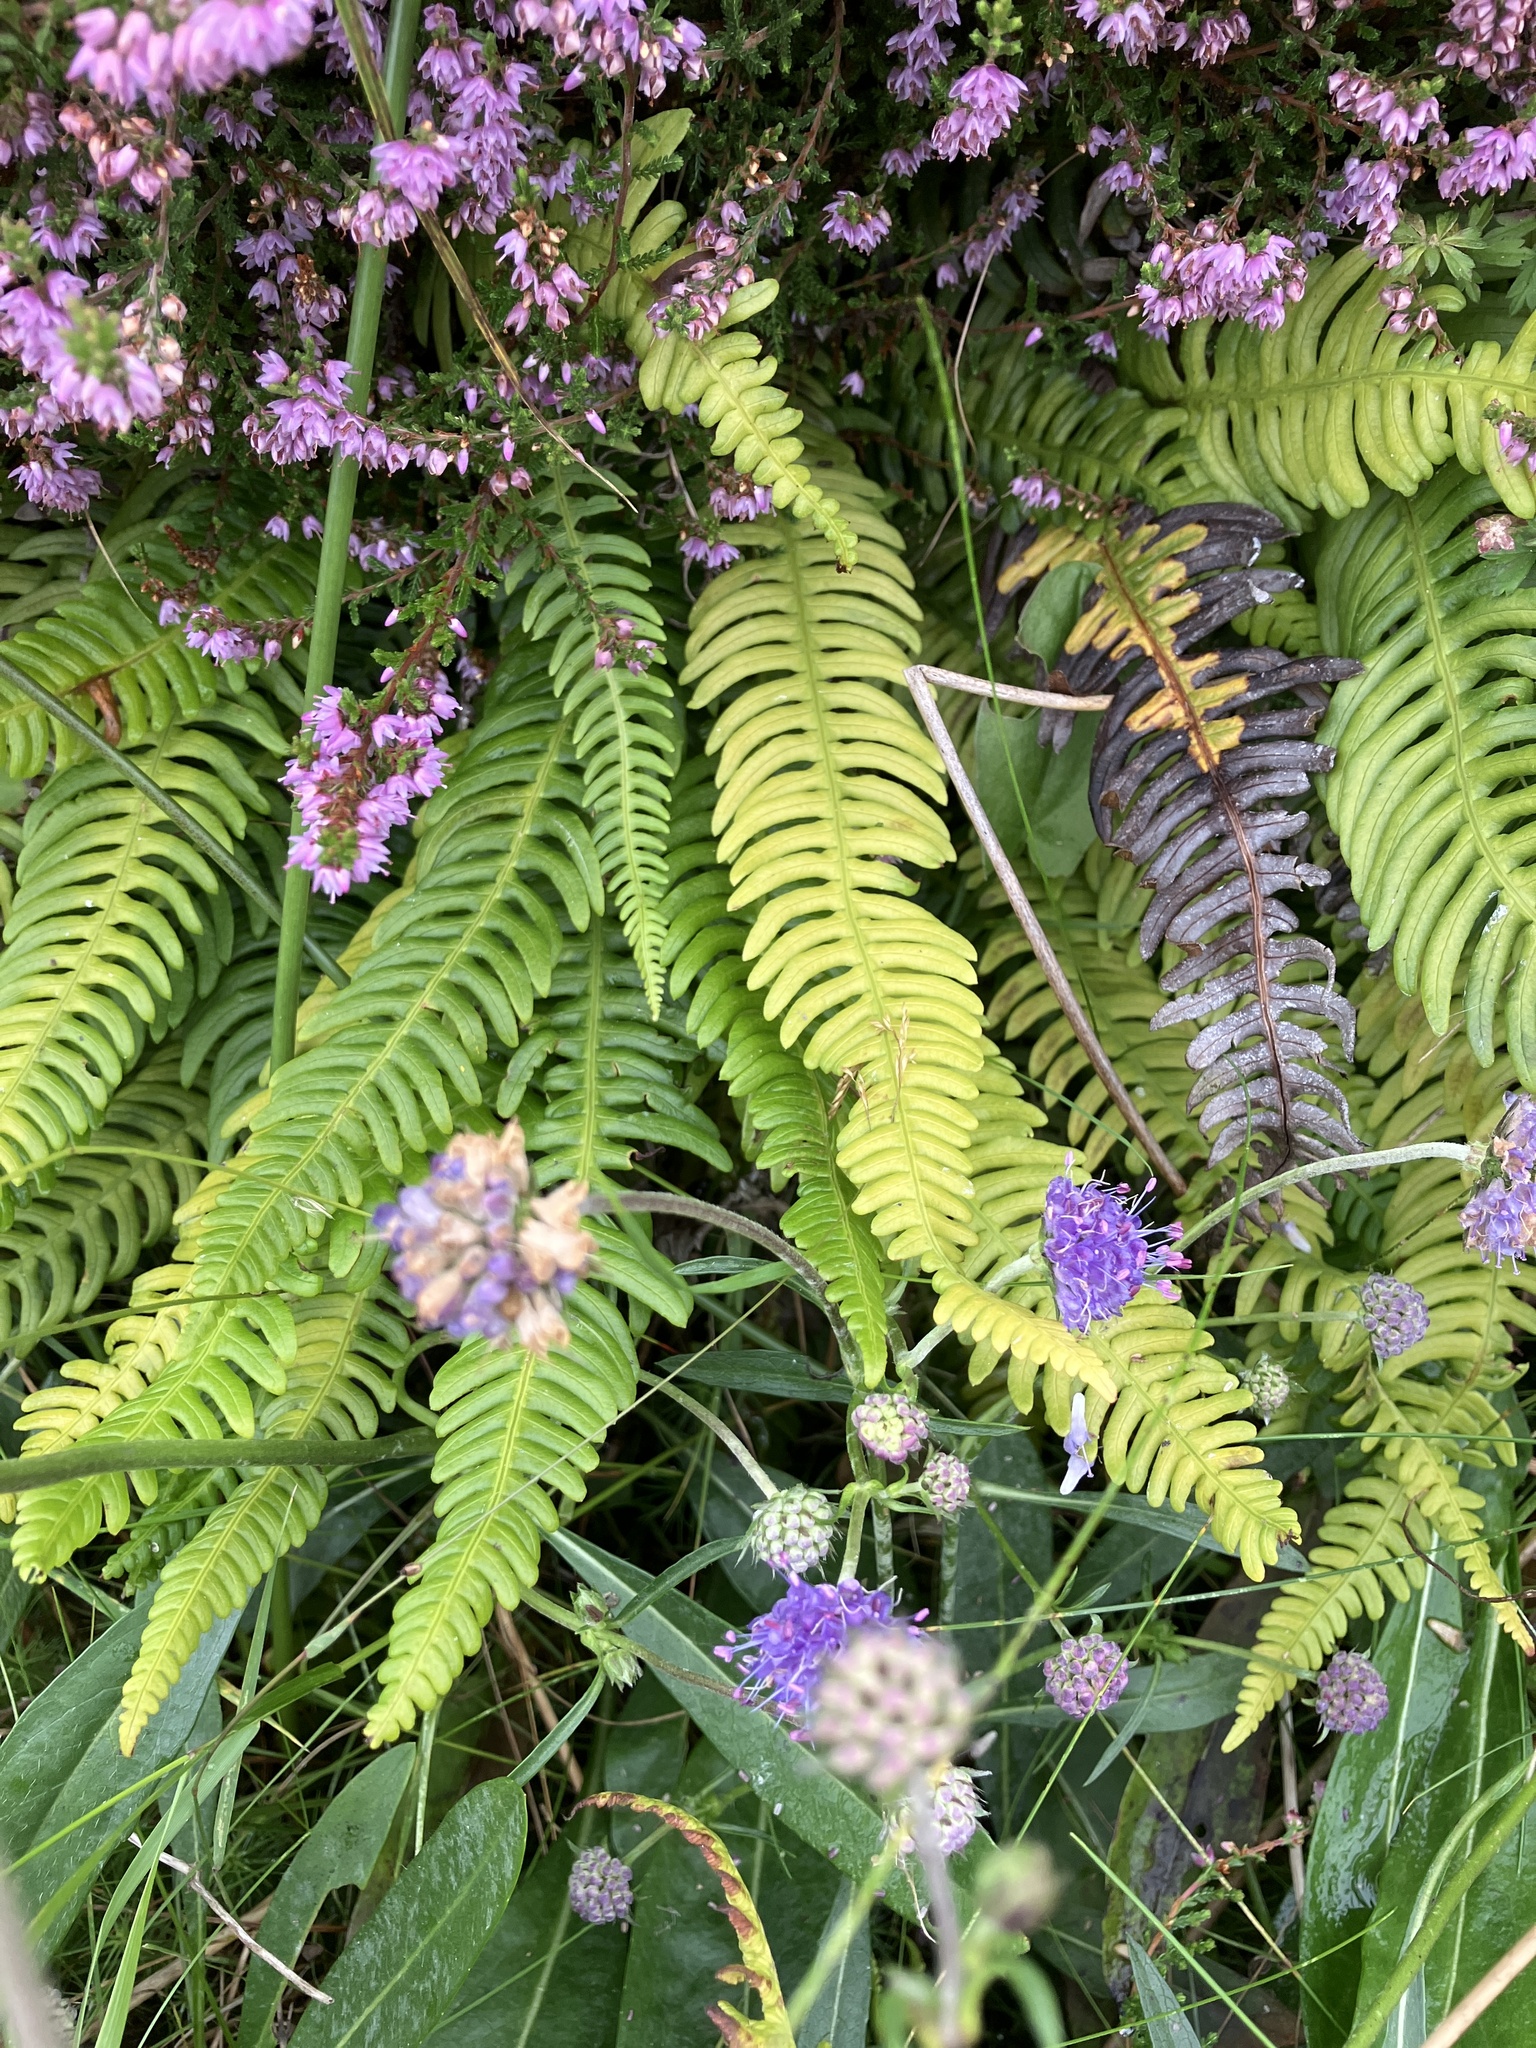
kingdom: Plantae
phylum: Tracheophyta
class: Polypodiopsida
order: Polypodiales
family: Blechnaceae
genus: Struthiopteris
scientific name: Struthiopteris spicant
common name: Deer fern
